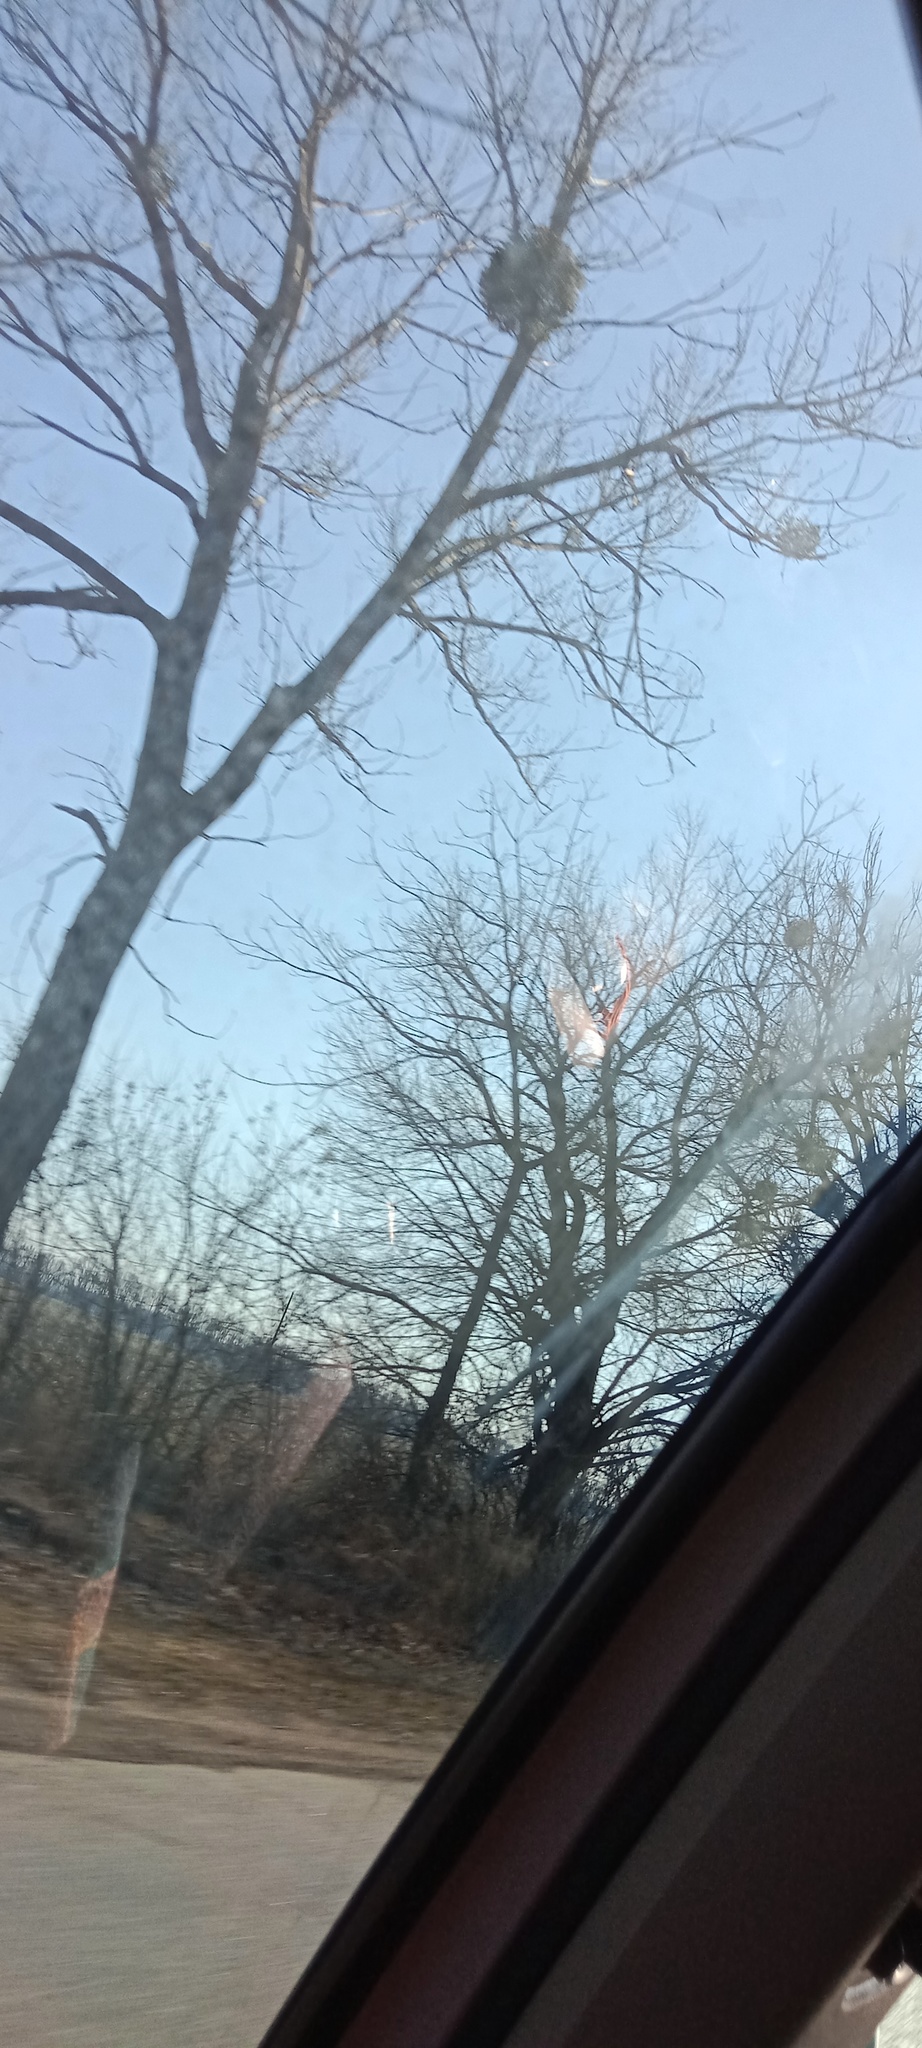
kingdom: Plantae
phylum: Tracheophyta
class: Magnoliopsida
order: Santalales
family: Viscaceae
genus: Viscum
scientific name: Viscum album
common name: Mistletoe
